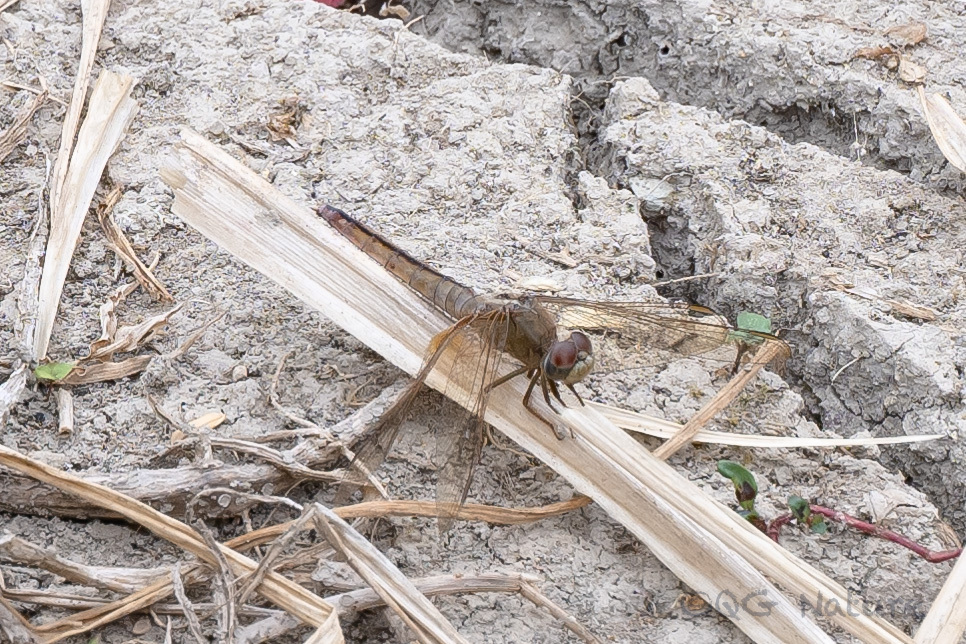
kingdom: Animalia
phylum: Arthropoda
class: Insecta
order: Odonata
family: Libellulidae
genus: Crocothemis
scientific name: Crocothemis servilia
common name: Scarlet skimmer
